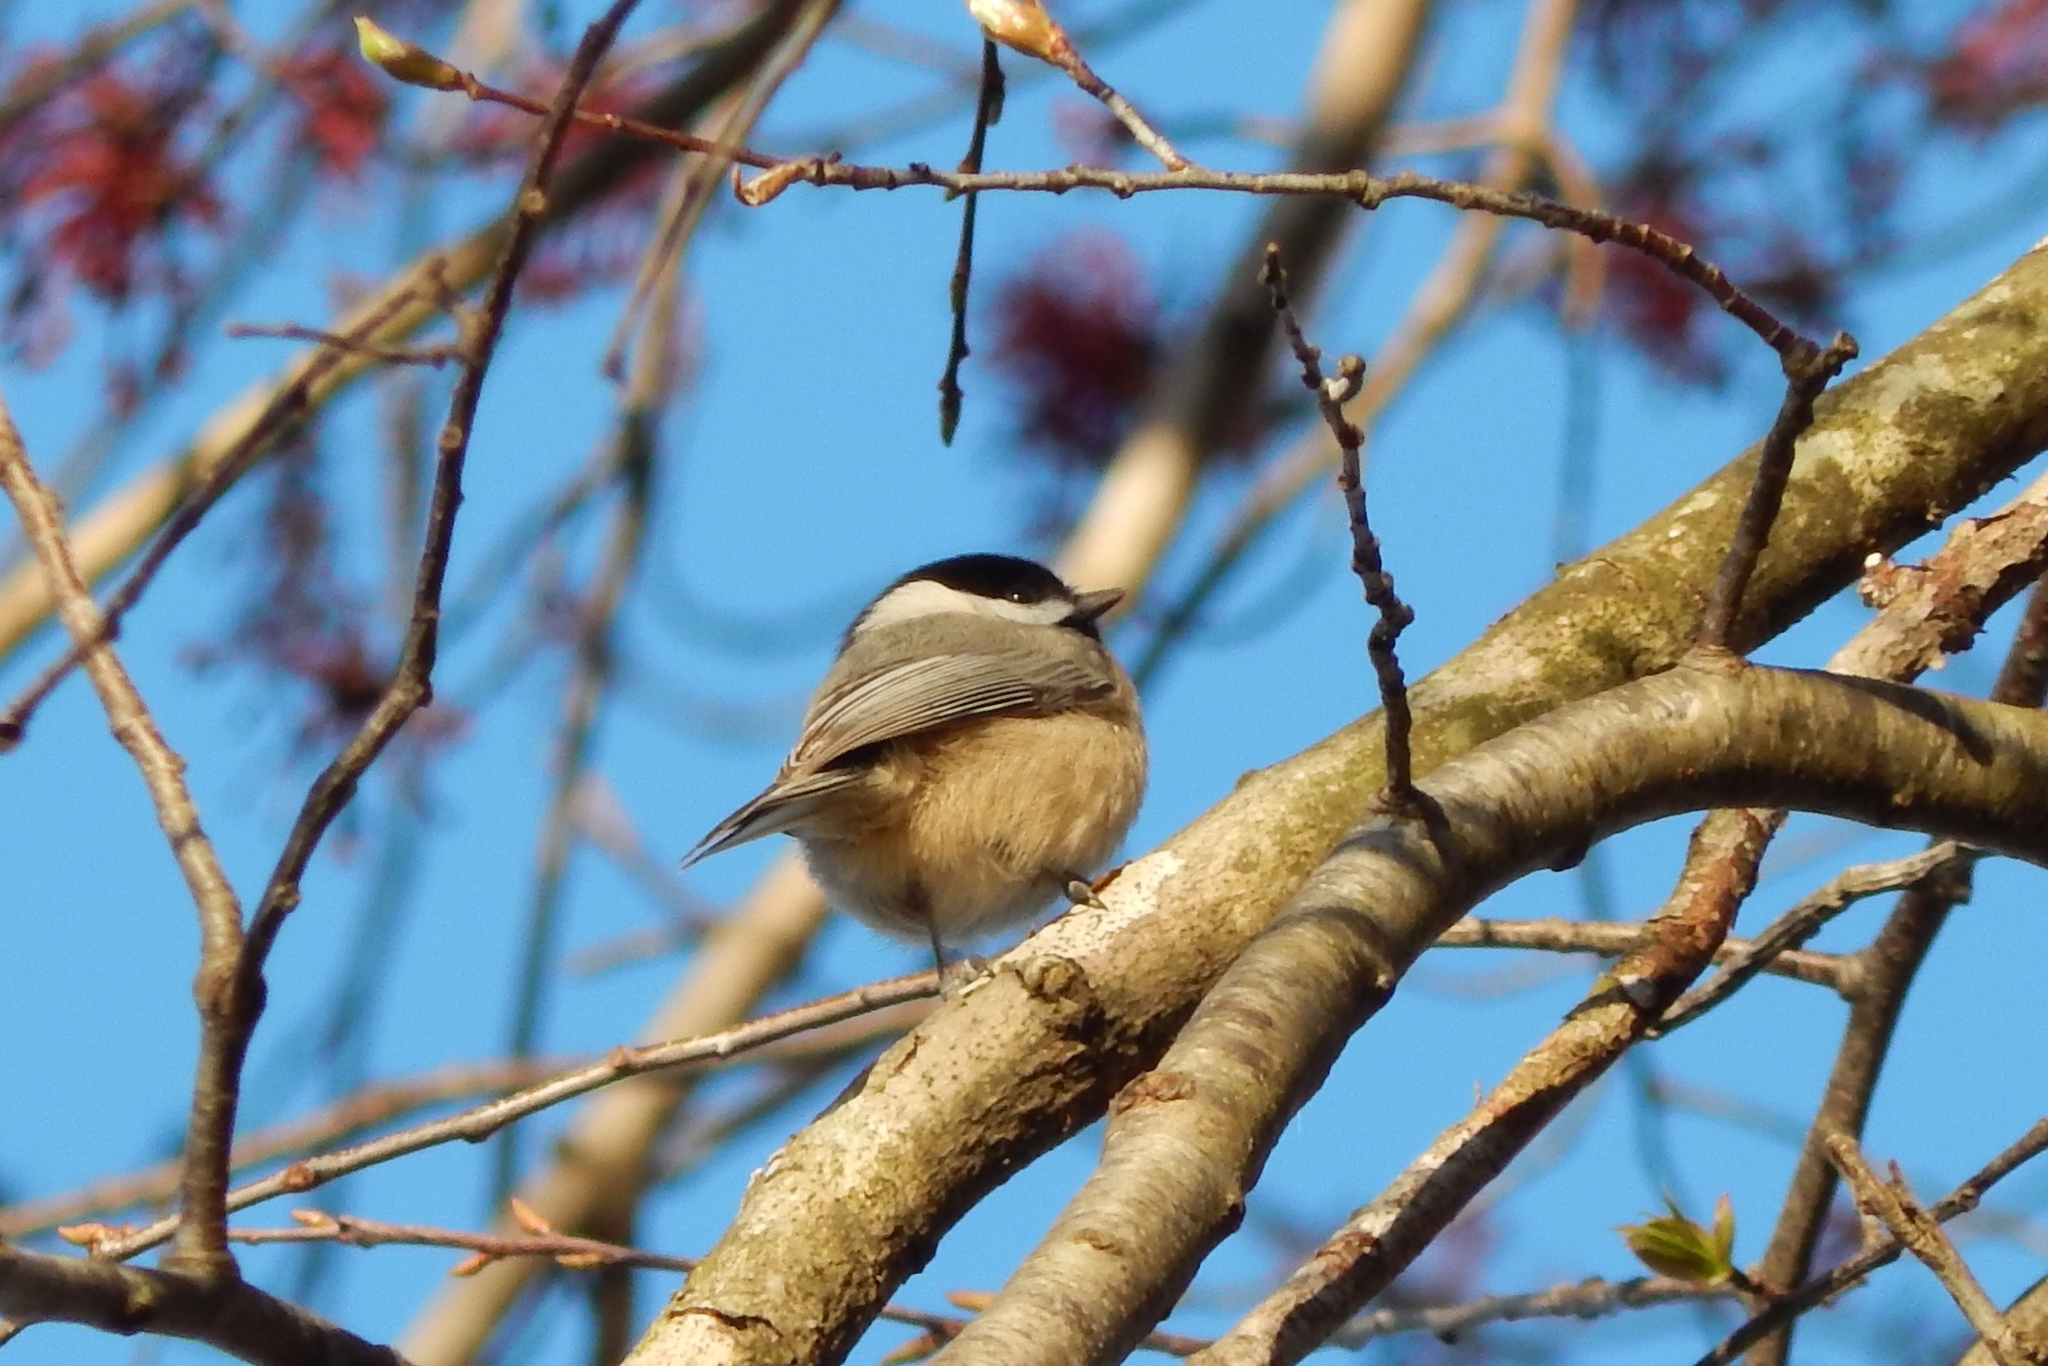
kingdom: Animalia
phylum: Chordata
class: Aves
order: Passeriformes
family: Paridae
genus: Poecile
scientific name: Poecile carolinensis
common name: Carolina chickadee
